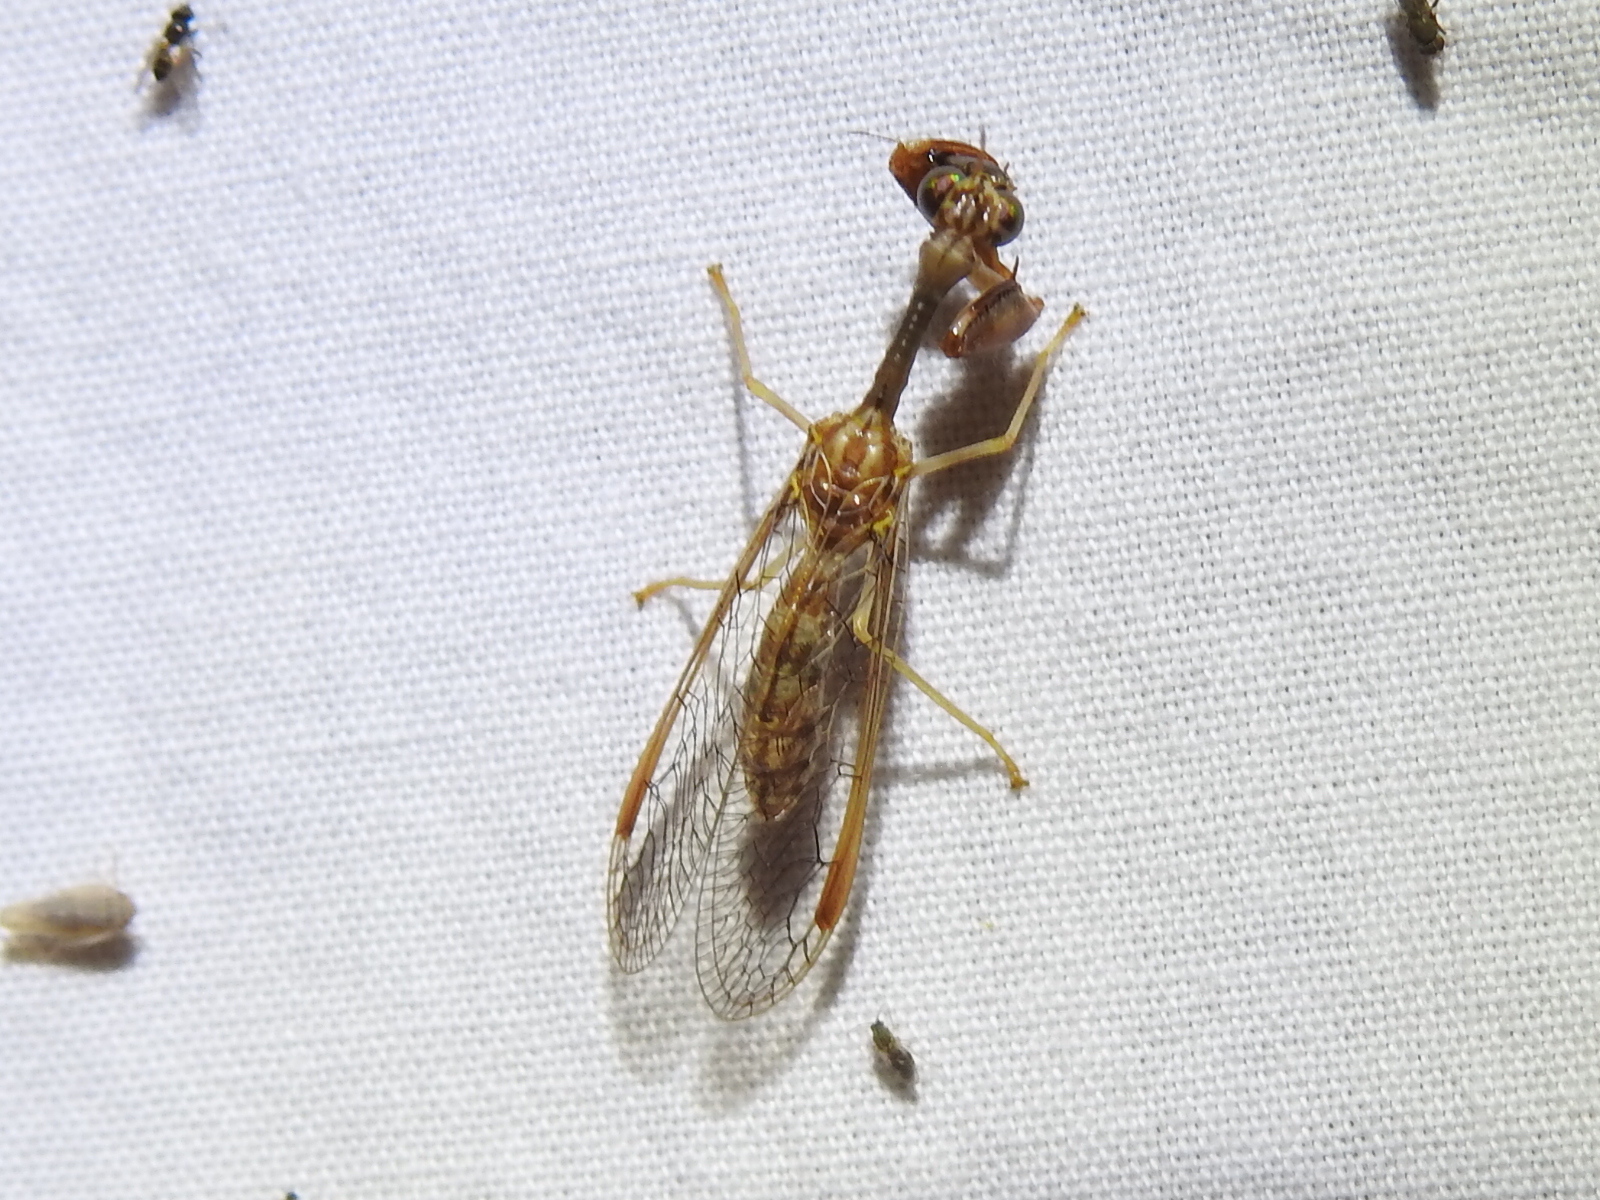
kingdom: Animalia
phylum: Arthropoda
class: Insecta
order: Neuroptera
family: Mantispidae
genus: Dicromantispa
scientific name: Dicromantispa sayi
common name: Say's mantidfly
